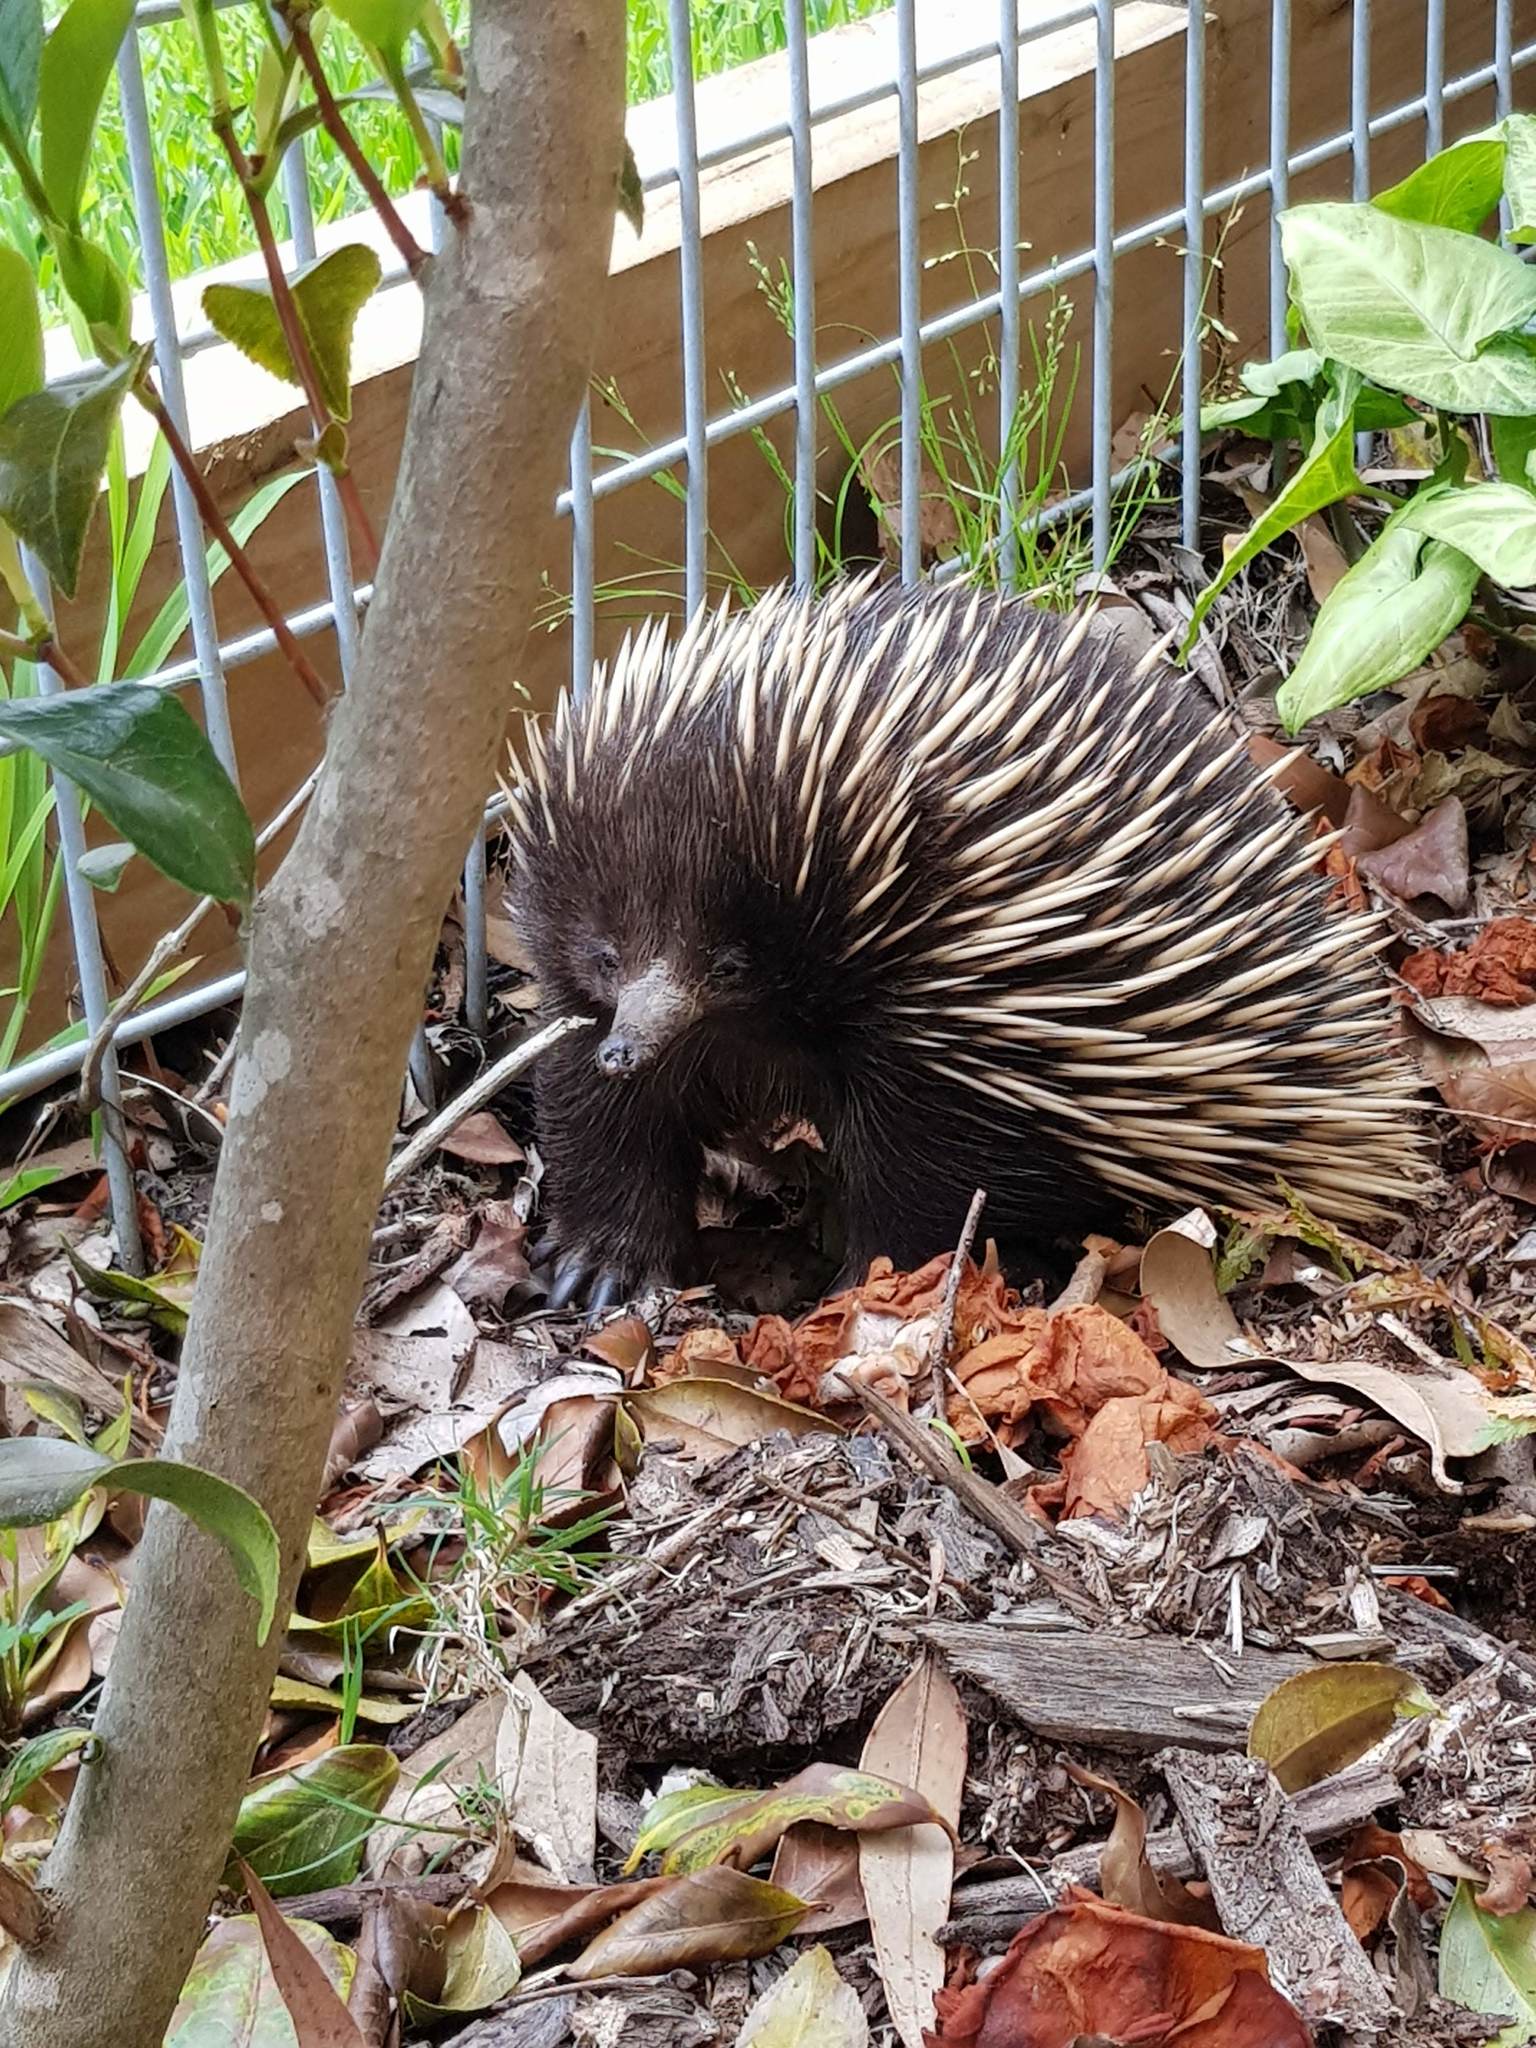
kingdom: Animalia
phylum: Chordata
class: Mammalia
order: Monotremata
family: Tachyglossidae
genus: Tachyglossus
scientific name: Tachyglossus aculeatus
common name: Short-beaked echidna
